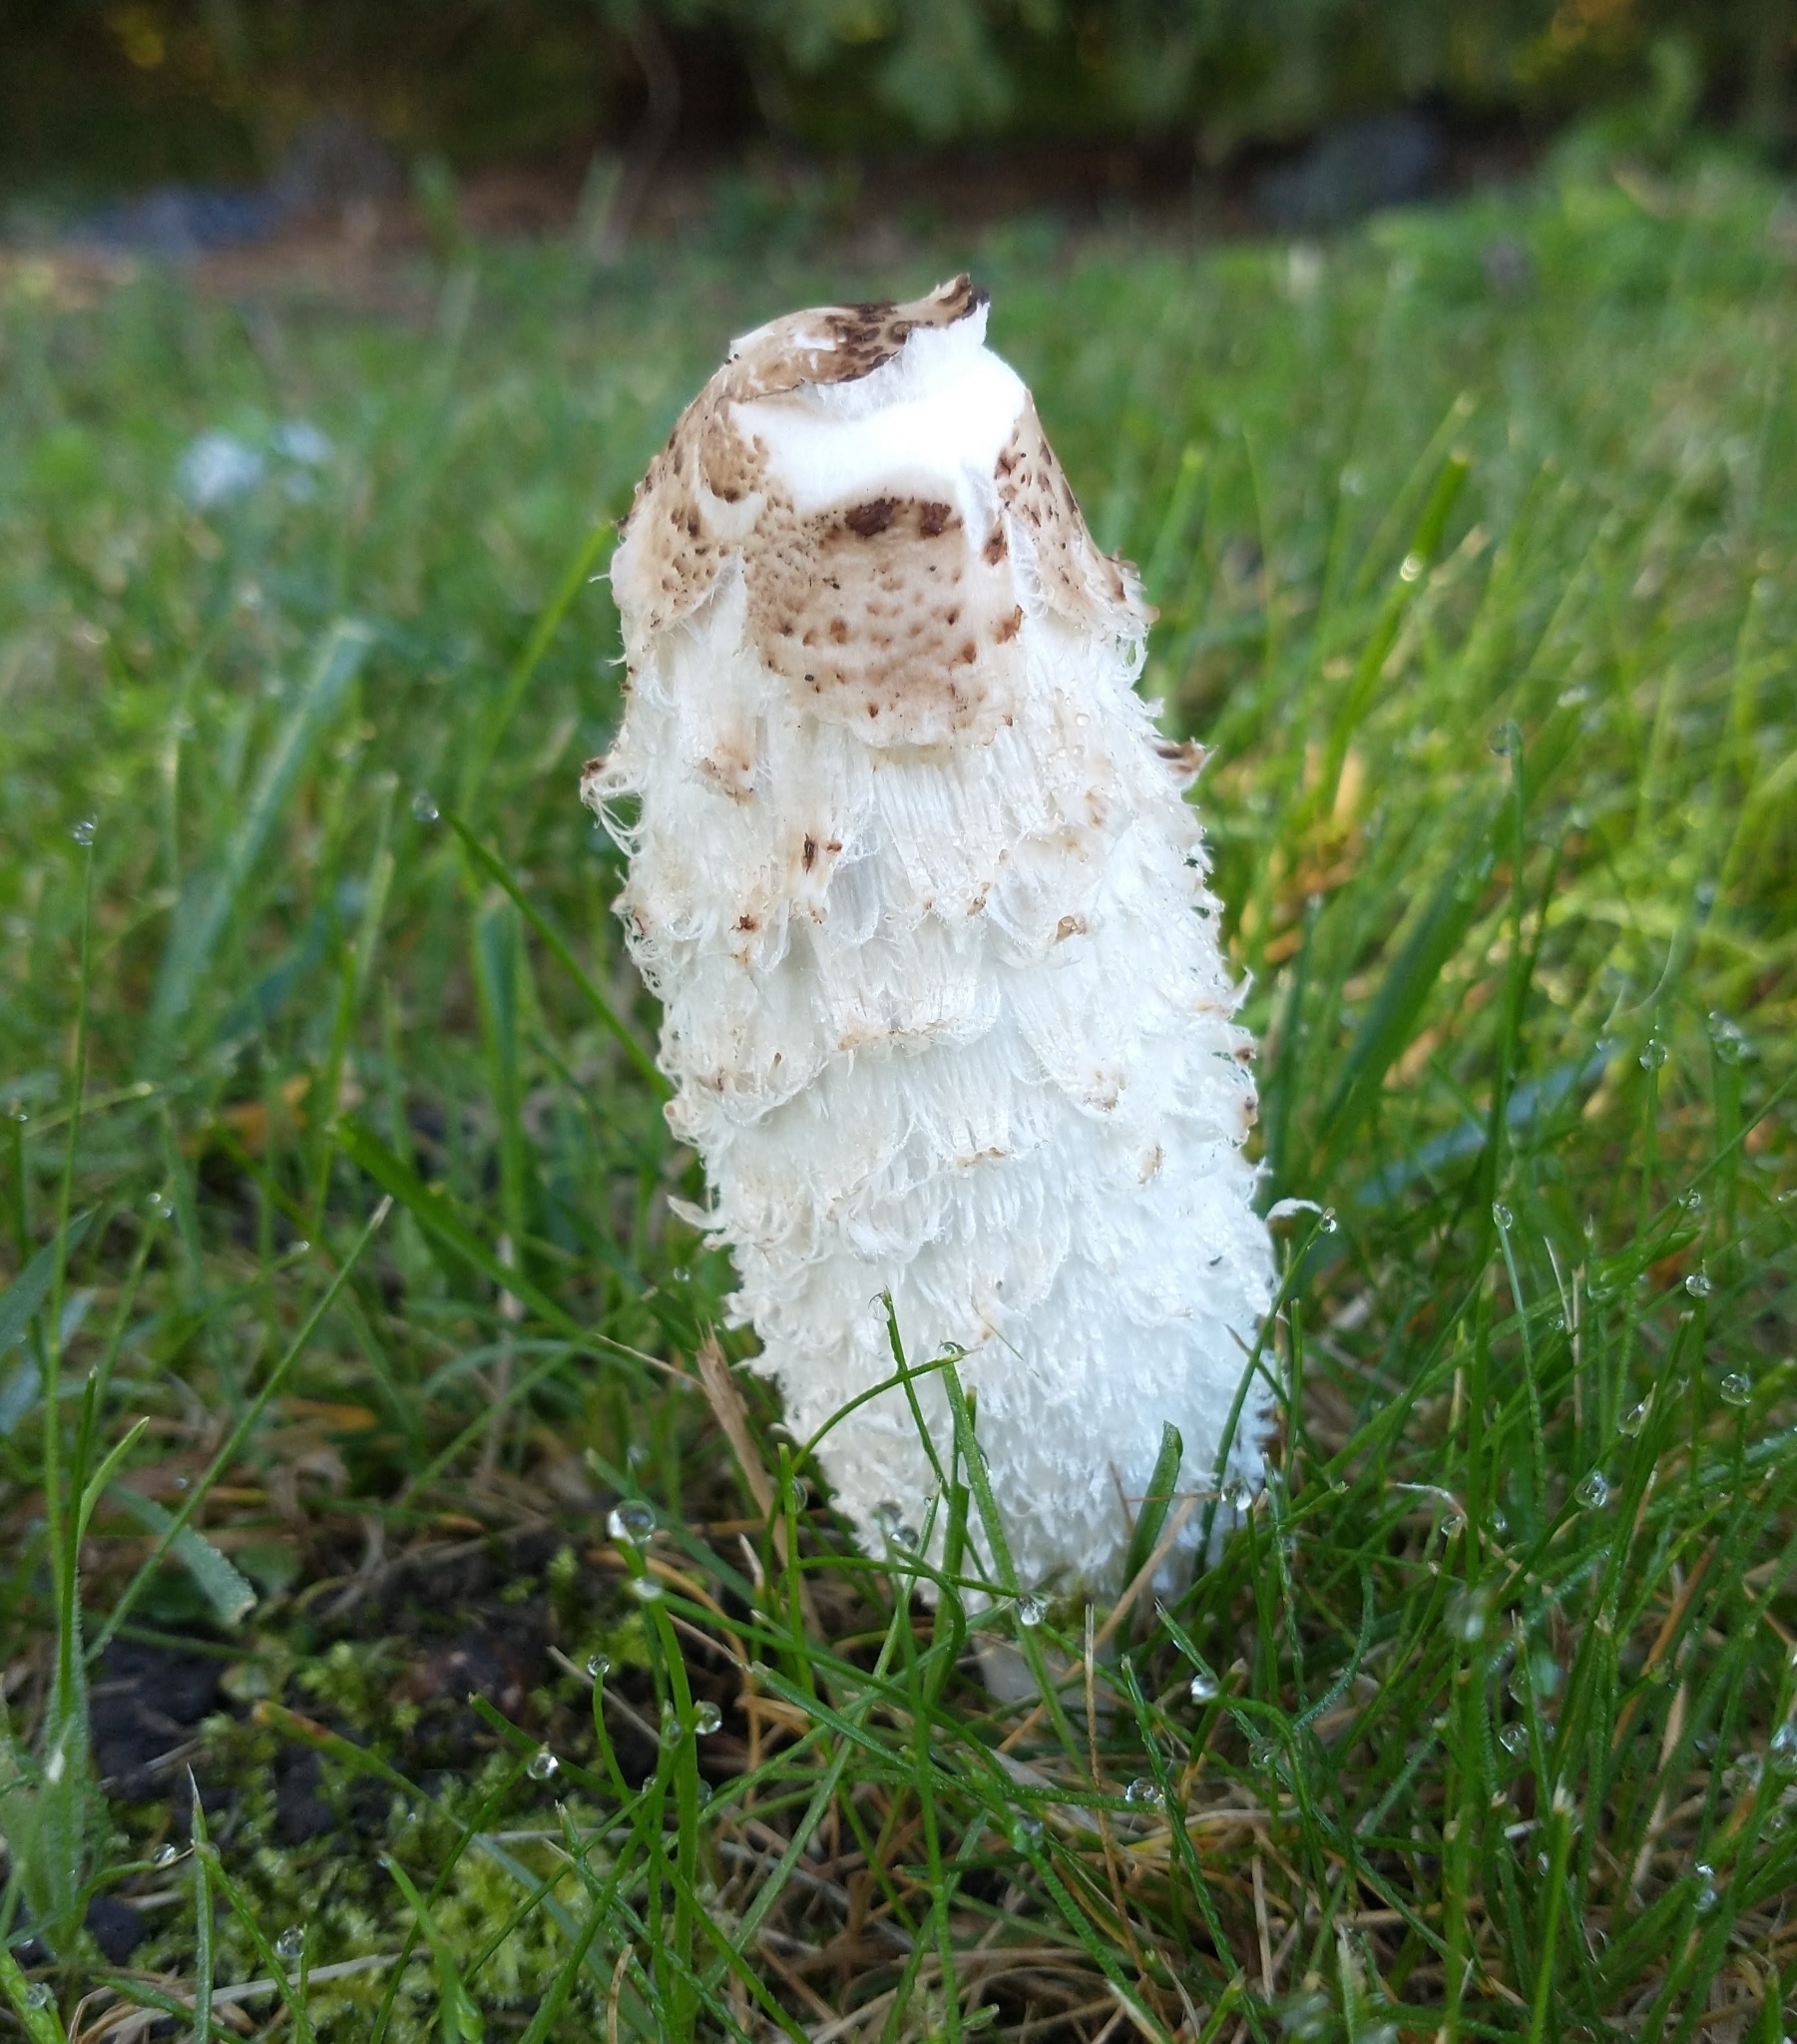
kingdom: Fungi
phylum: Basidiomycota
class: Agaricomycetes
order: Agaricales
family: Agaricaceae
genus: Coprinus
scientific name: Coprinus comatus
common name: Lawyer's wig
